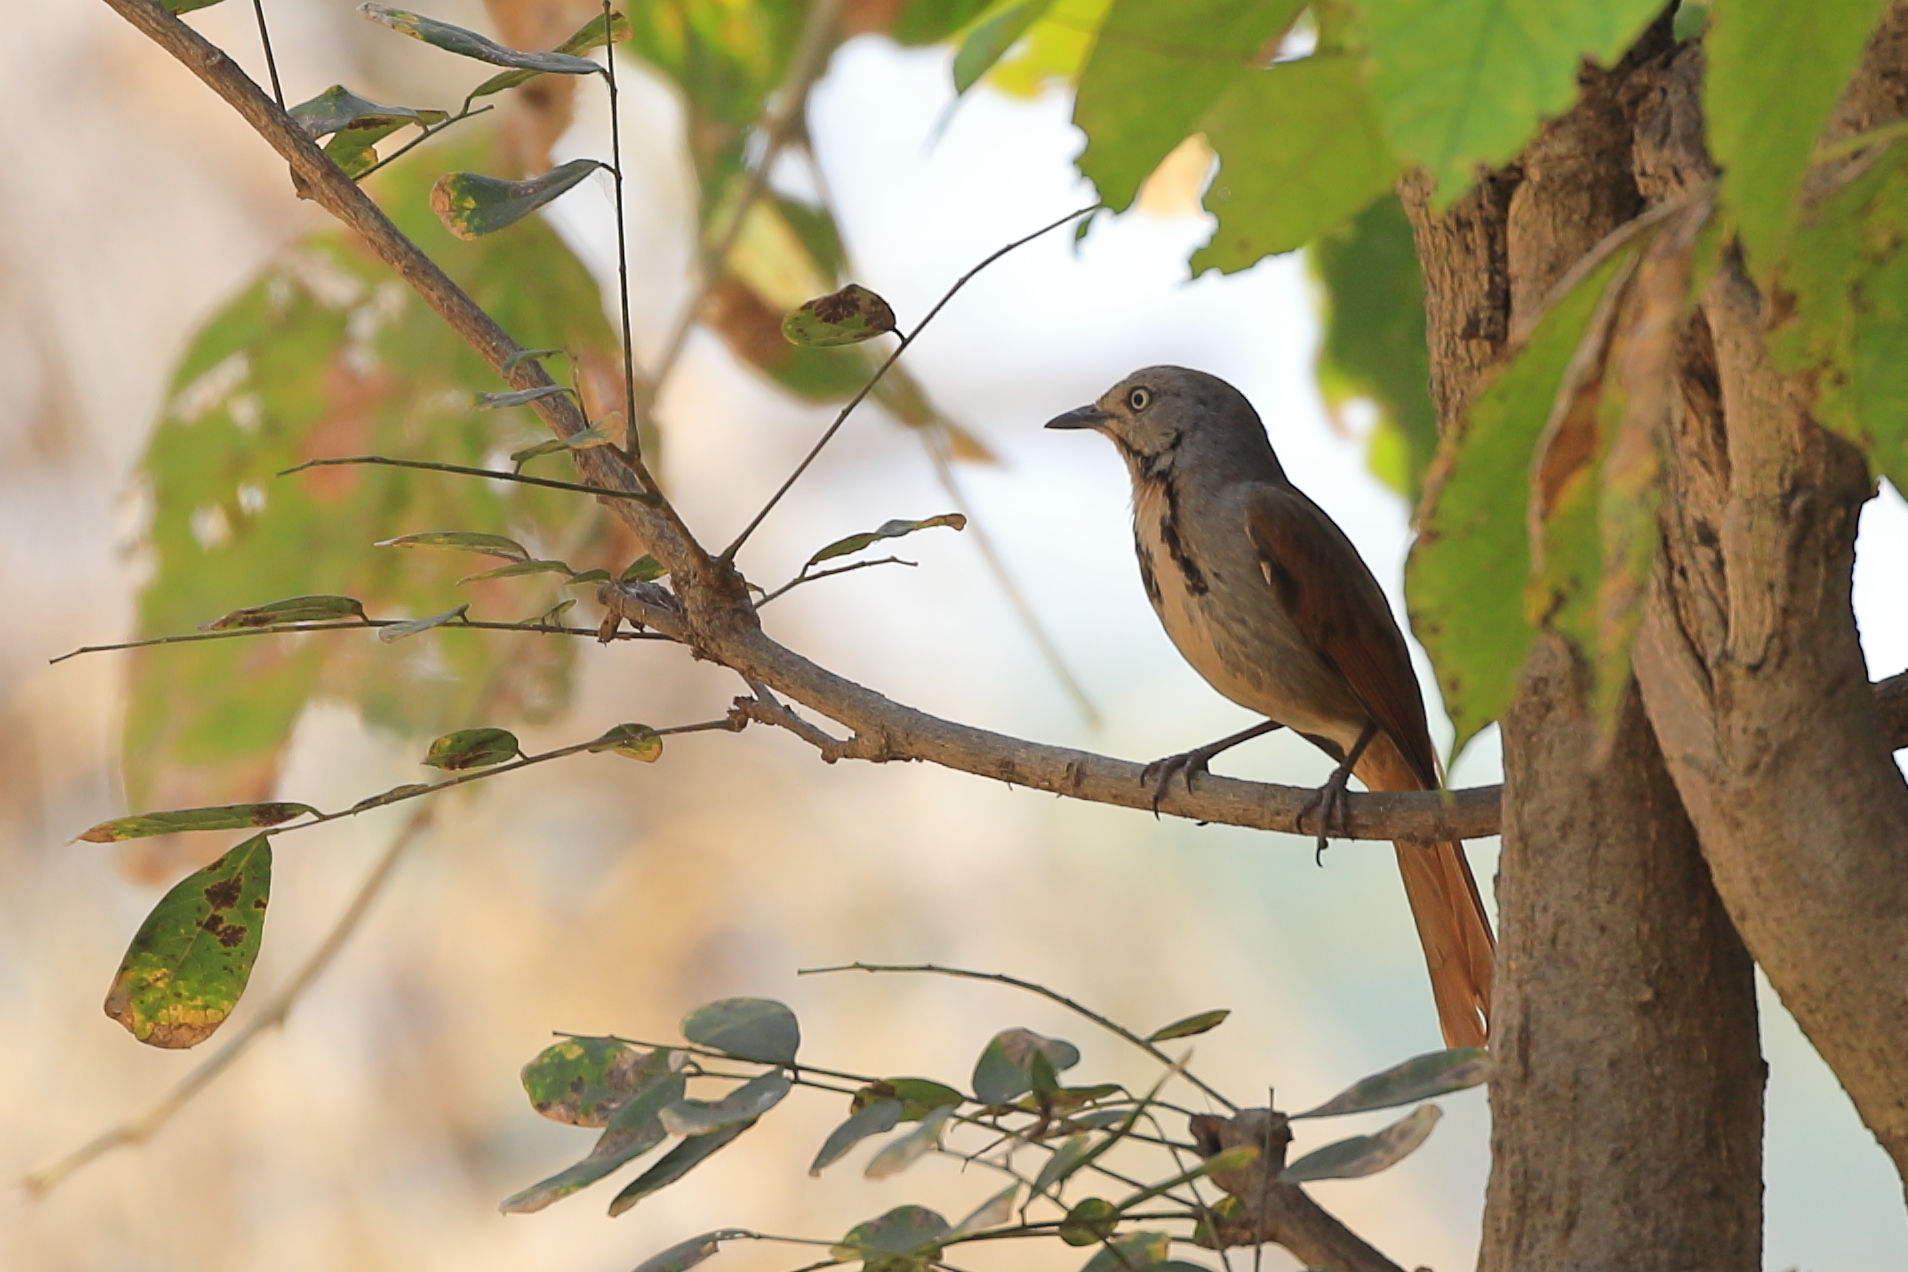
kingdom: Animalia
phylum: Chordata
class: Aves
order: Passeriformes
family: Muscicapidae
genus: Cichladusa
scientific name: Cichladusa arquata
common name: Collared palm thrush
